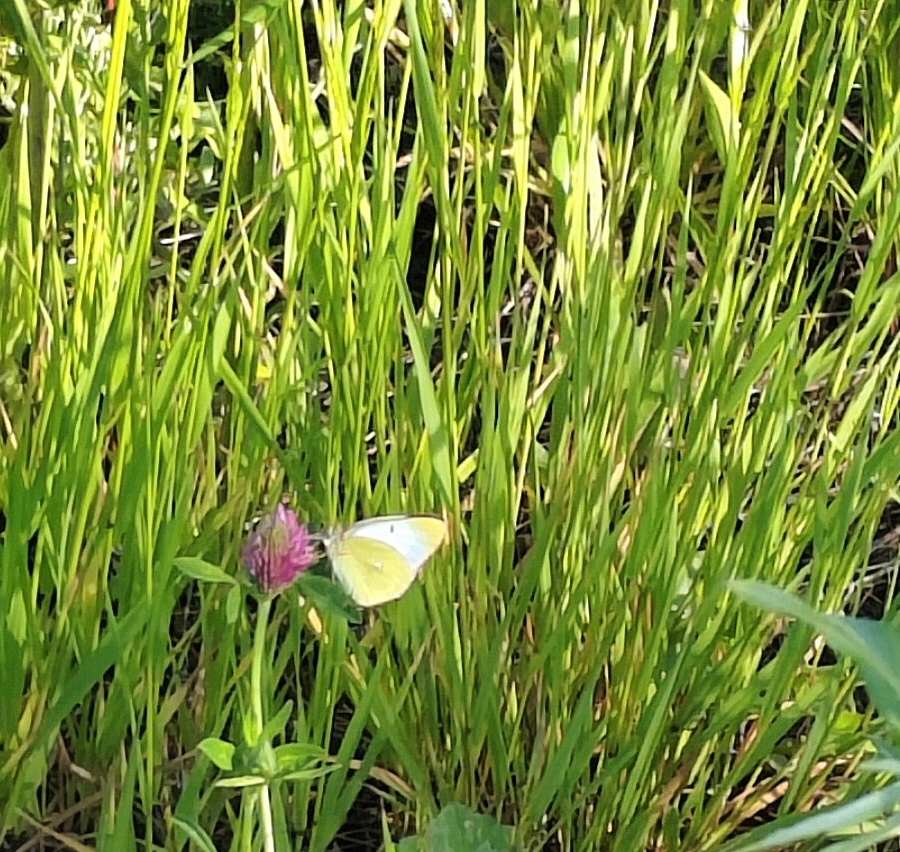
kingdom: Animalia
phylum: Arthropoda
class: Insecta
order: Lepidoptera
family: Pieridae
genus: Colias
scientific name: Colias palaeno
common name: Moorland clouded yellow
